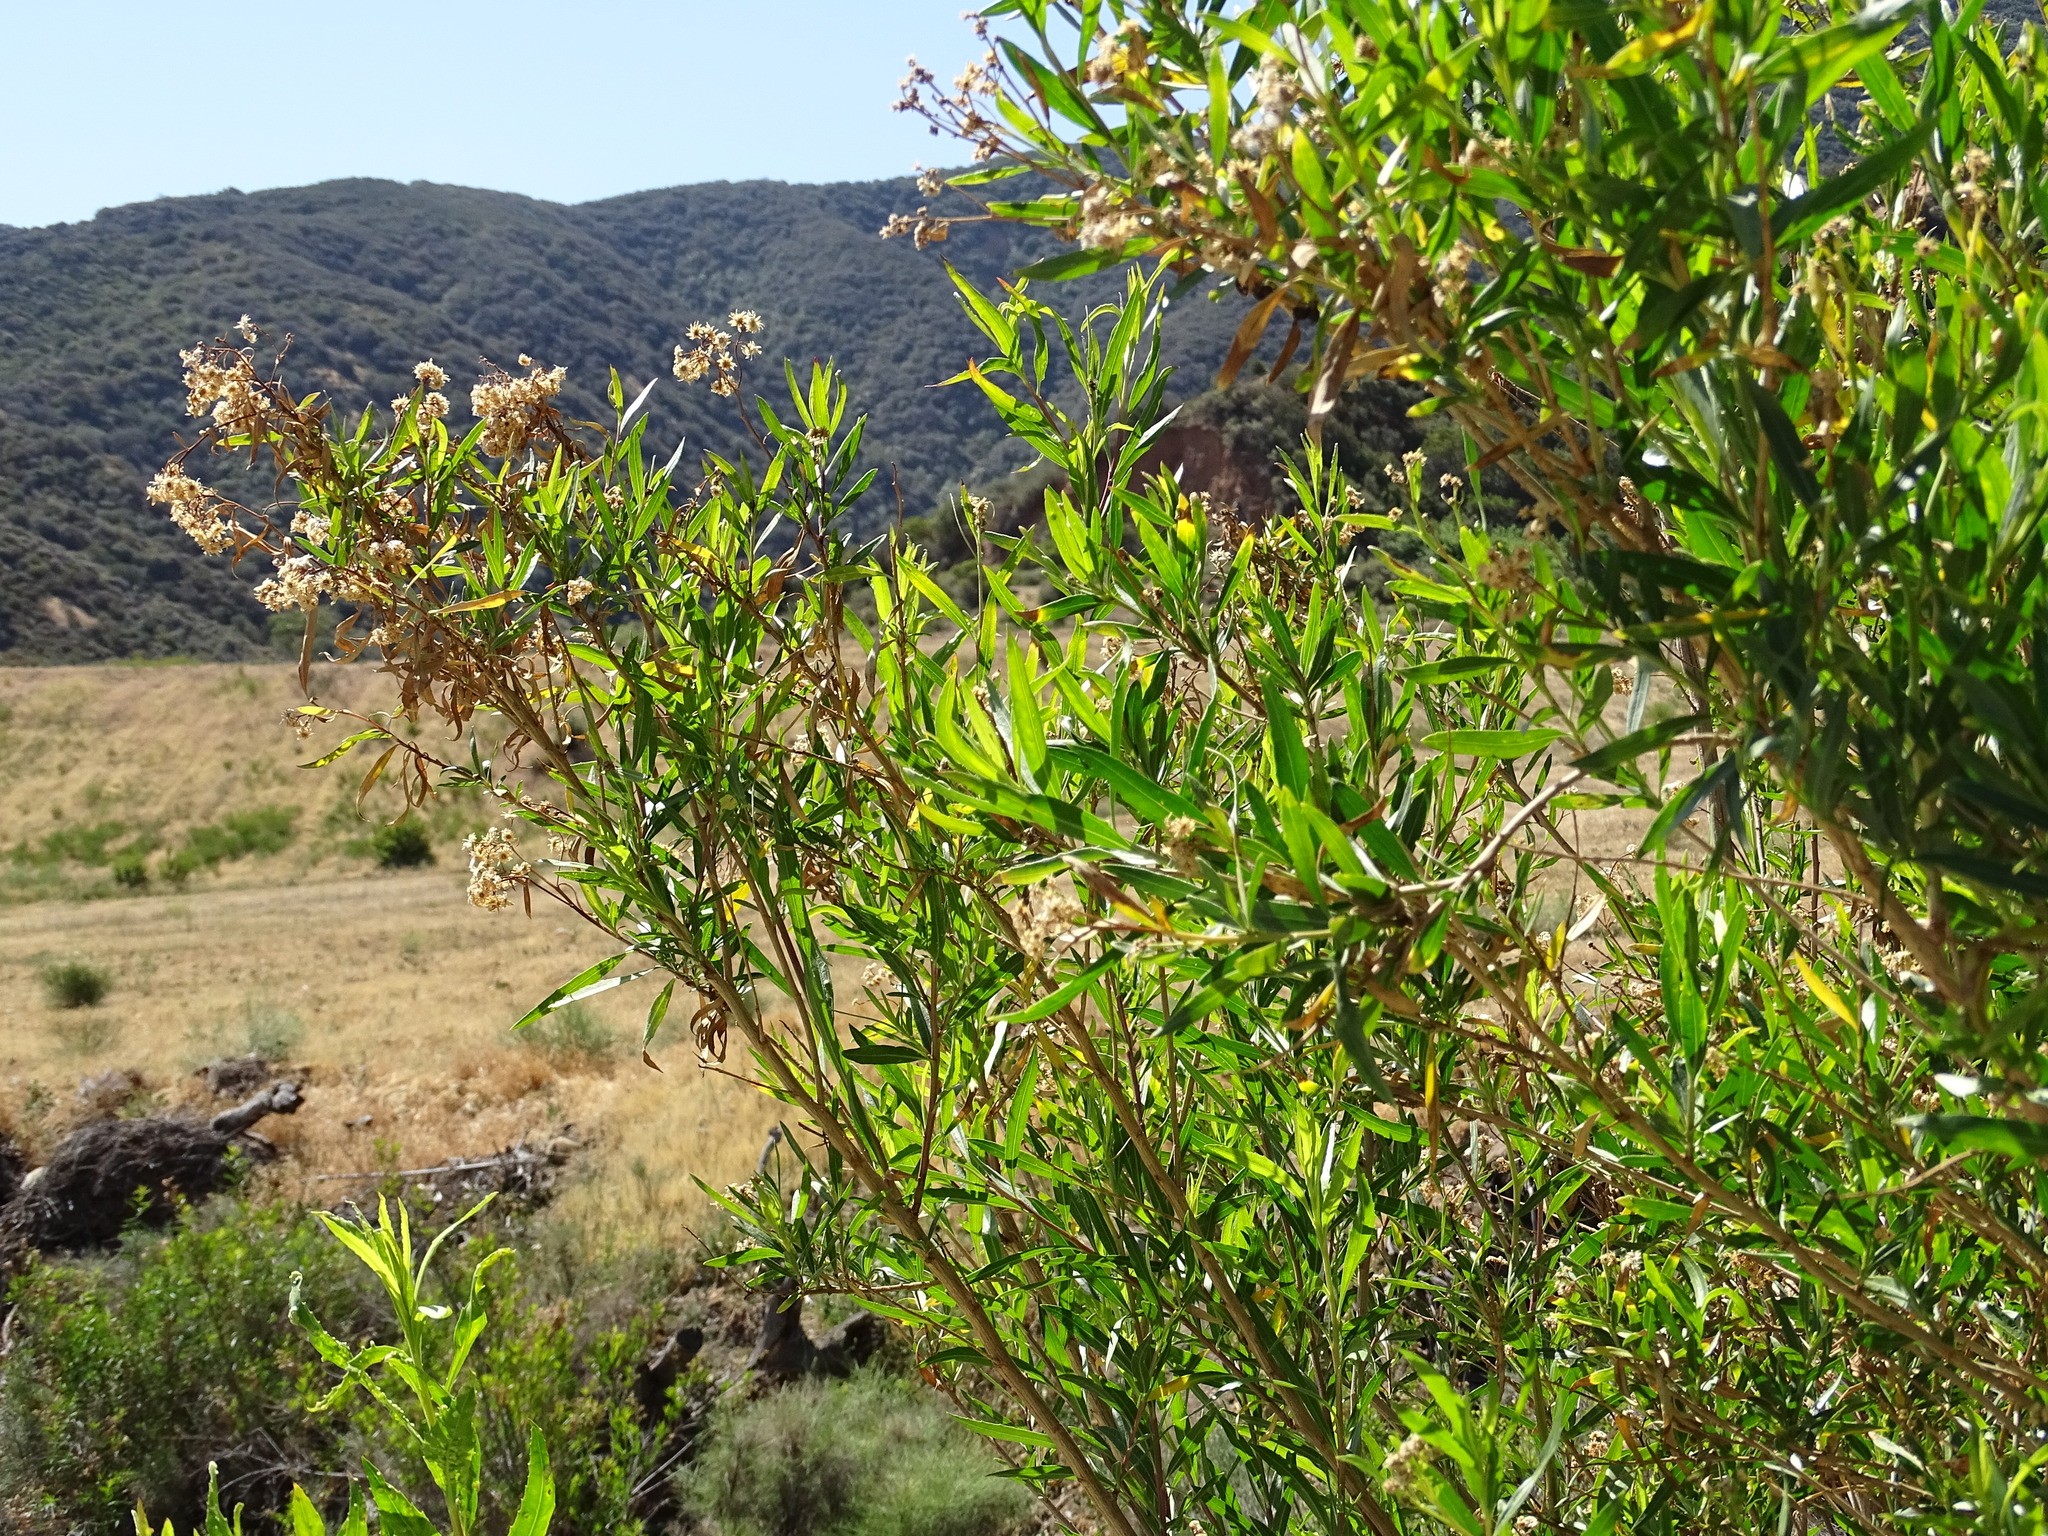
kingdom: Plantae
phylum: Tracheophyta
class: Magnoliopsida
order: Asterales
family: Asteraceae
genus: Baccharis
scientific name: Baccharis salicifolia
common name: Sticky baccharis
